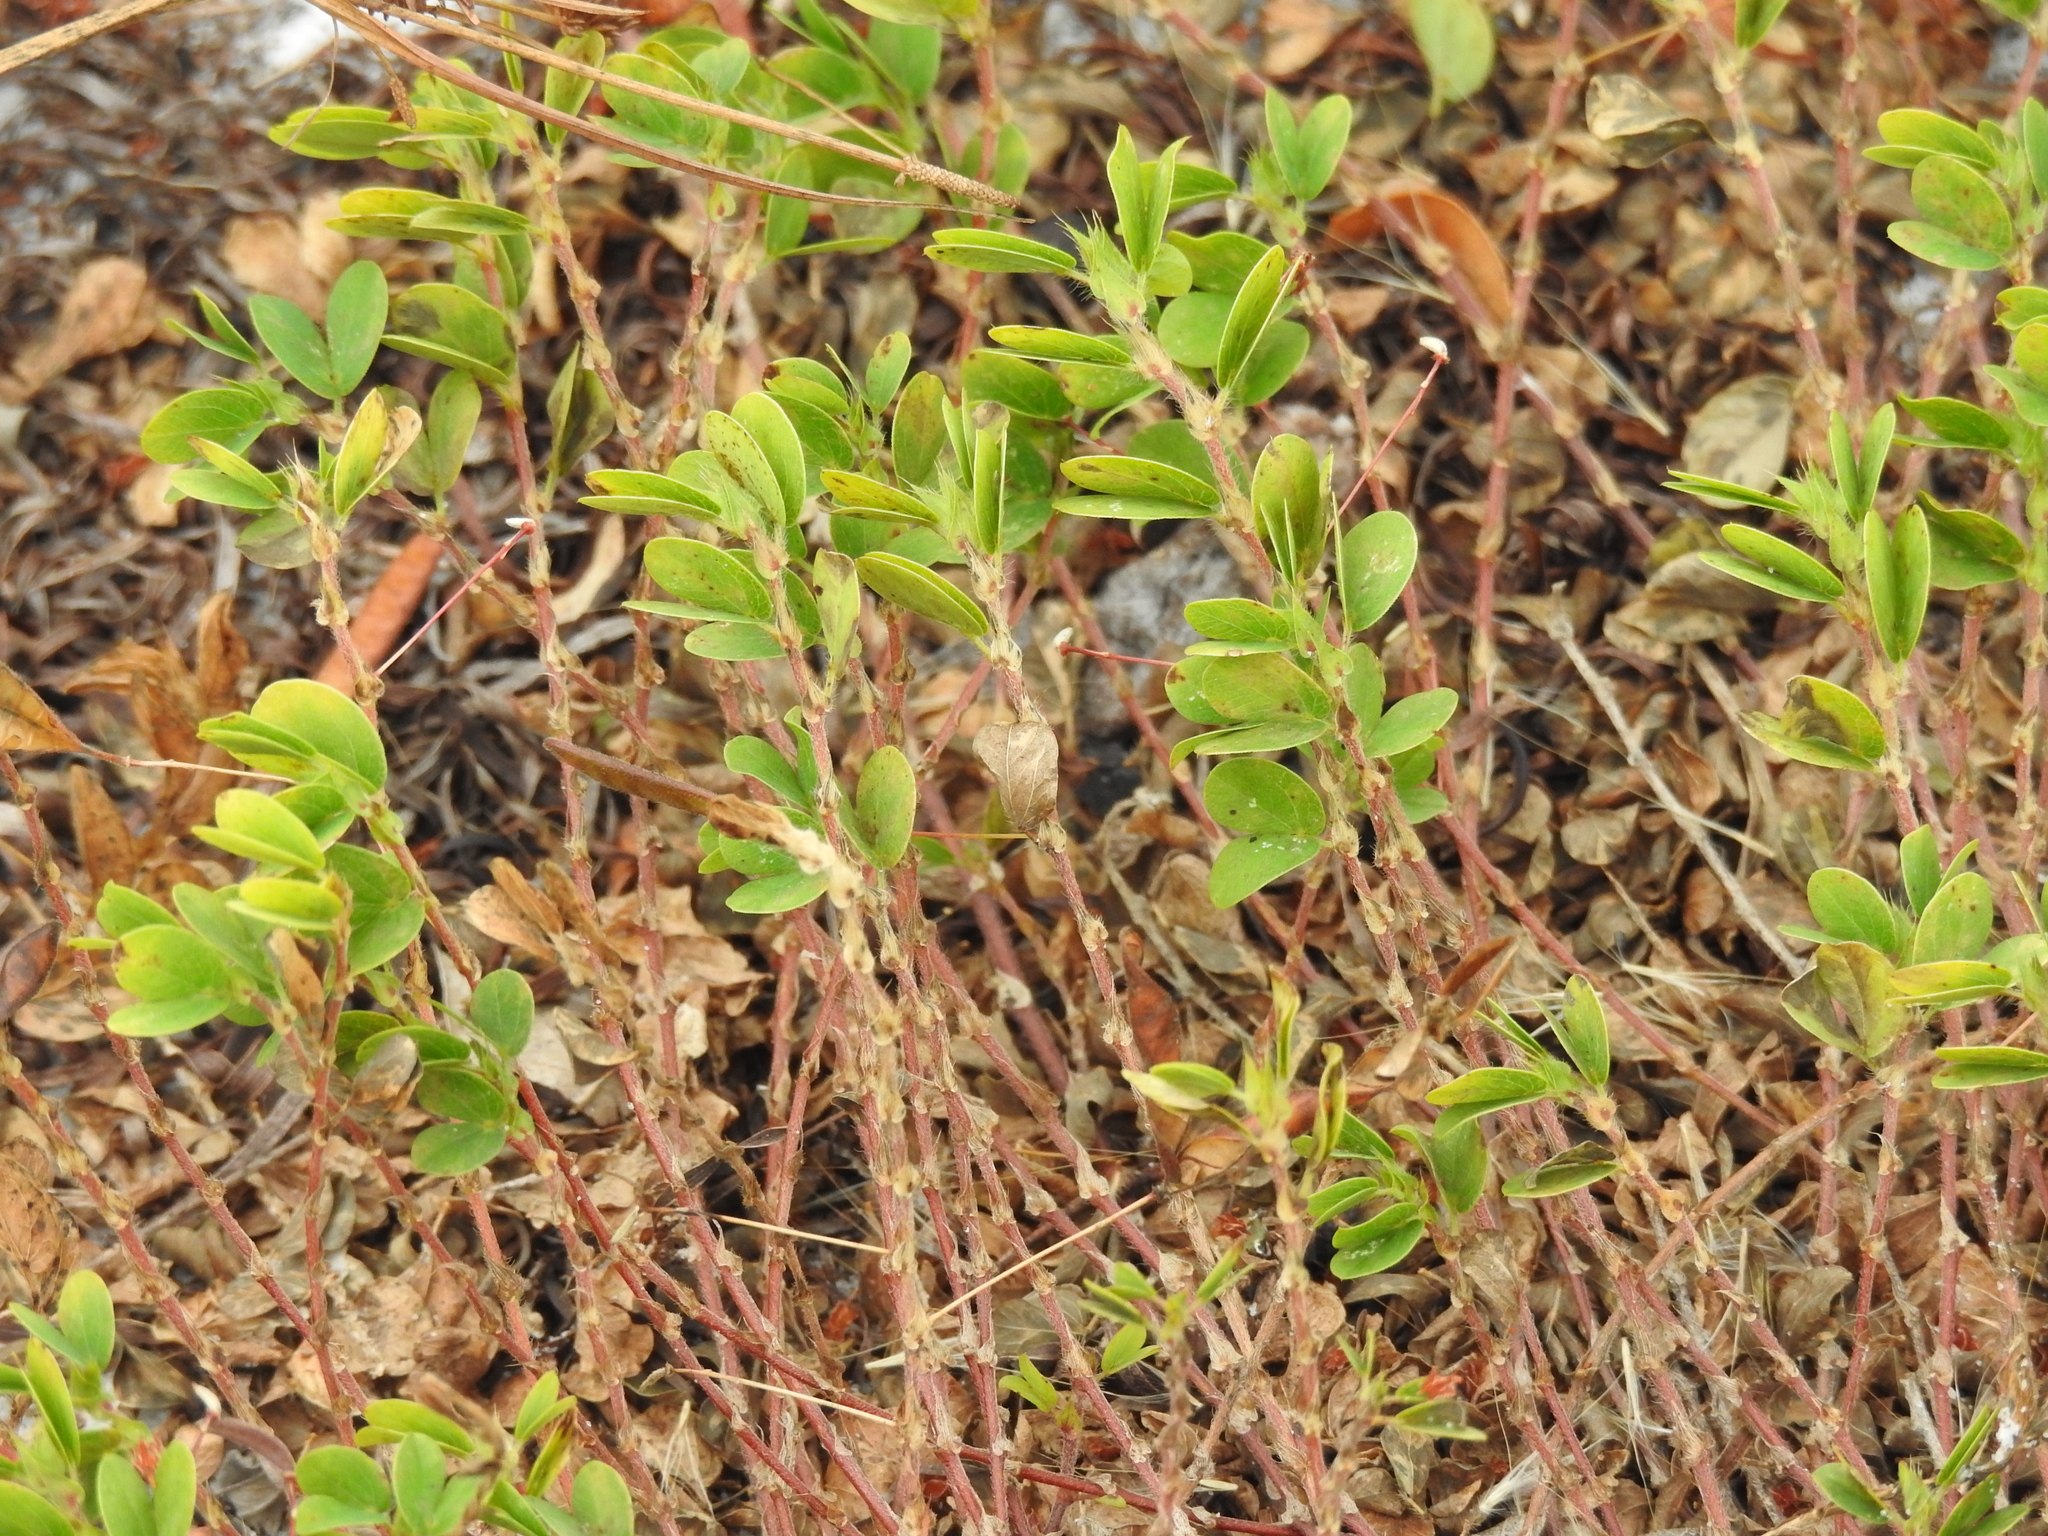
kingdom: Plantae
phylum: Tracheophyta
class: Magnoliopsida
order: Fabales
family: Fabaceae
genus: Chamaecrista
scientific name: Chamaecrista rotundifolia
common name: Round-leaf cassia
